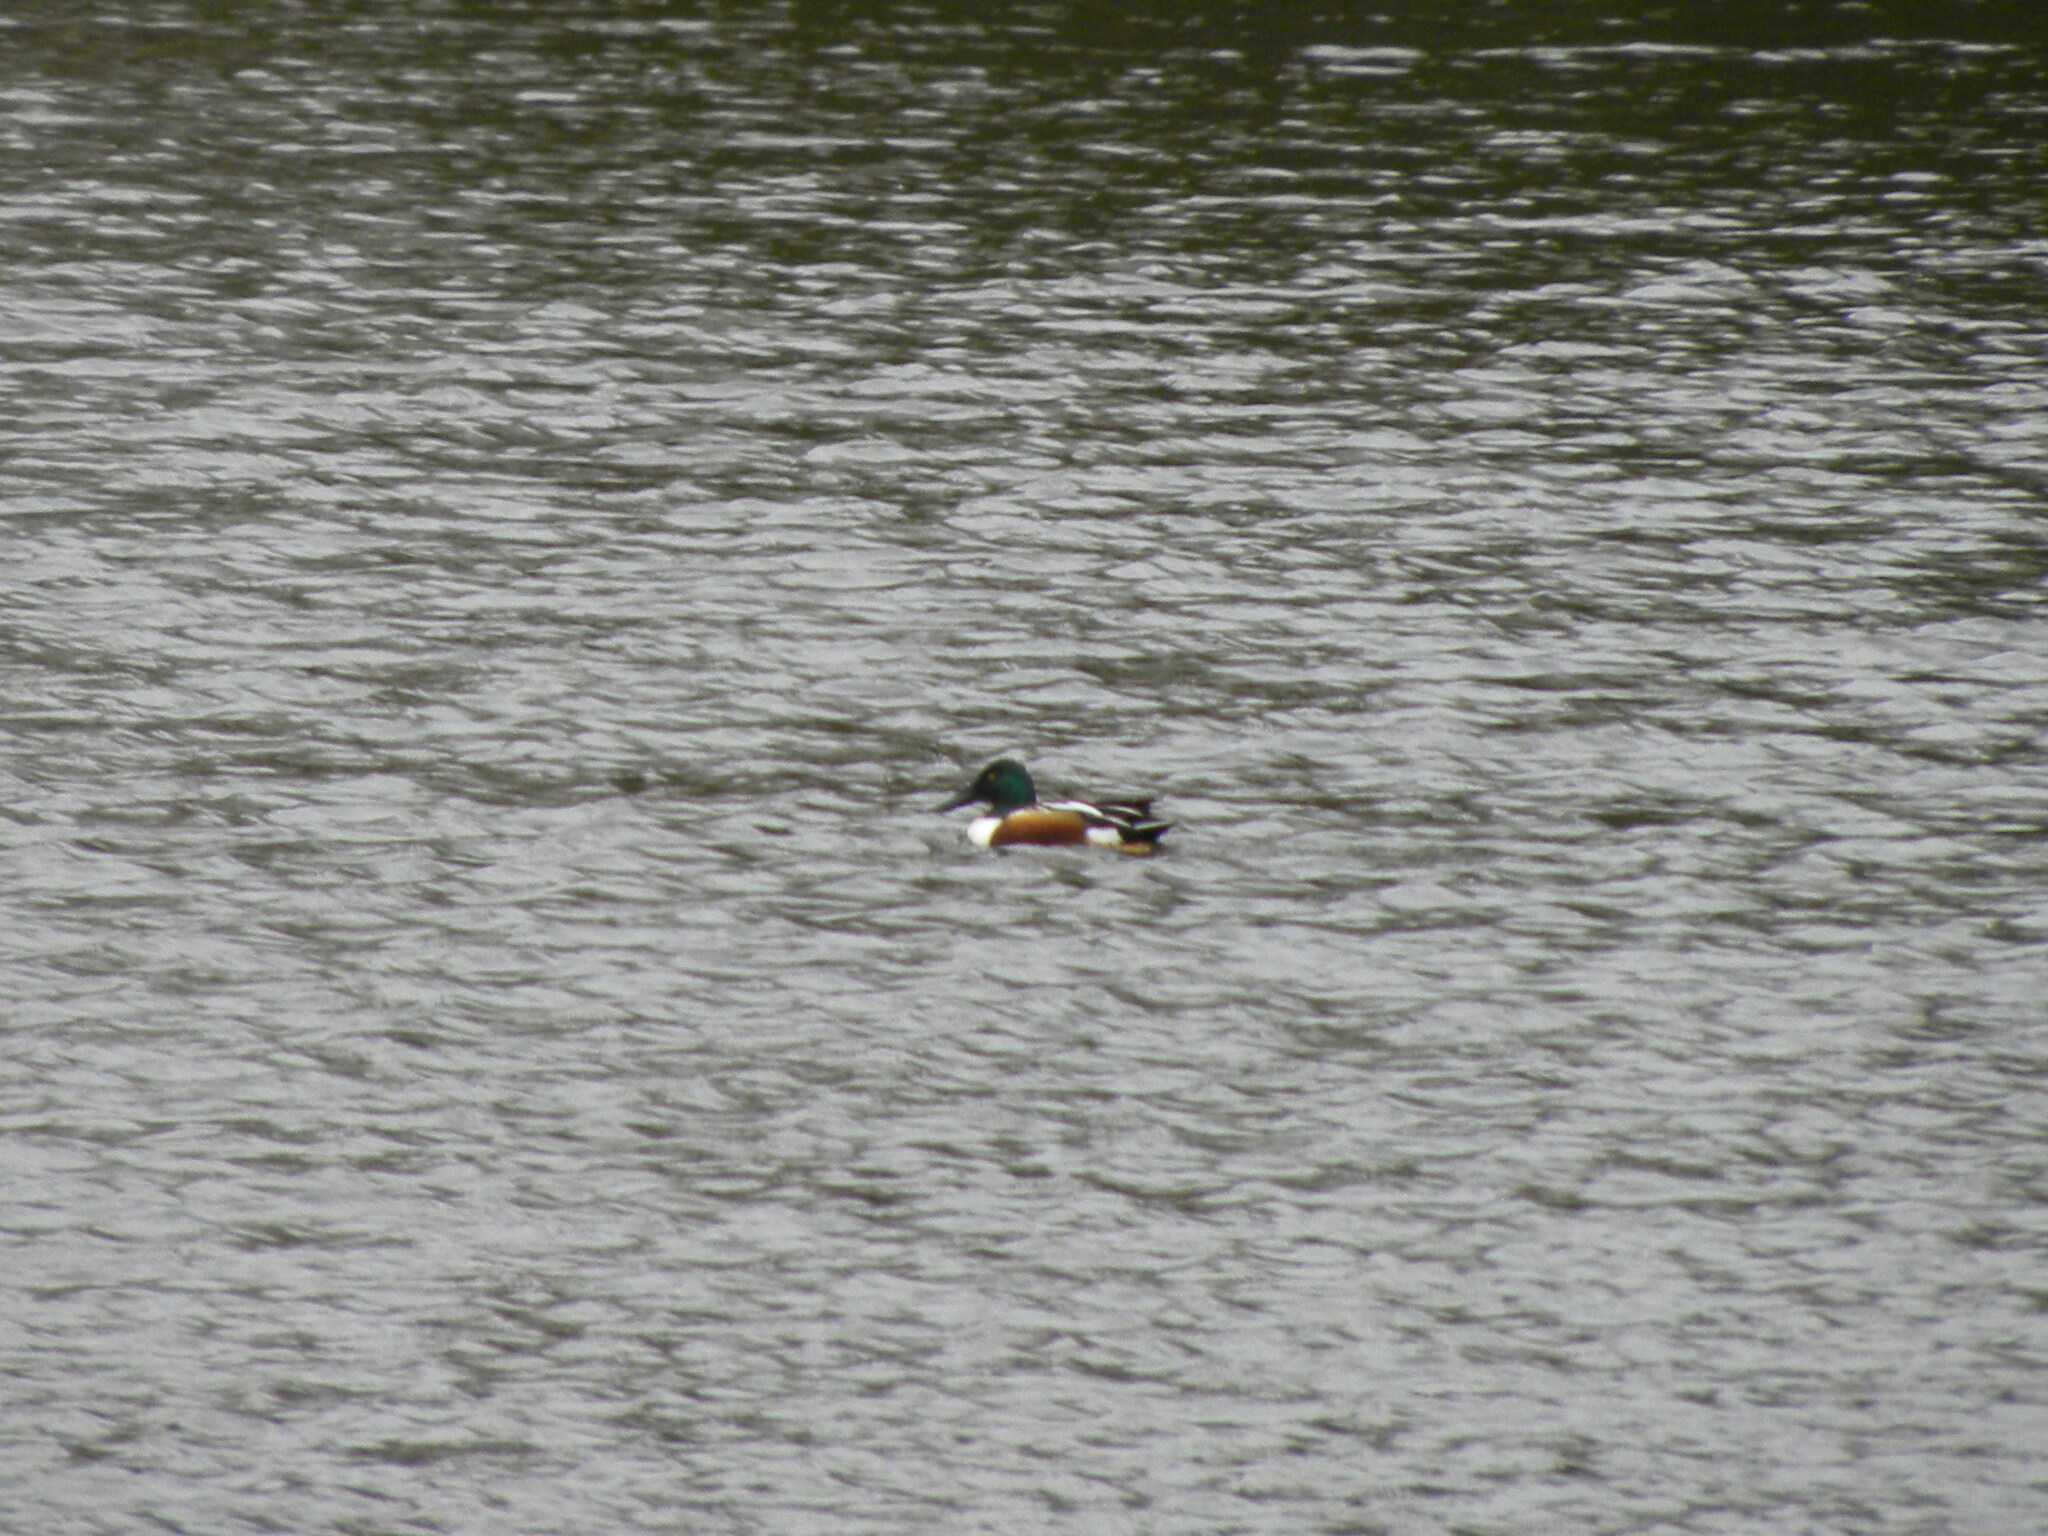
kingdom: Animalia
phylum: Chordata
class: Aves
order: Anseriformes
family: Anatidae
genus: Spatula
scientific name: Spatula clypeata
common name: Northern shoveler
